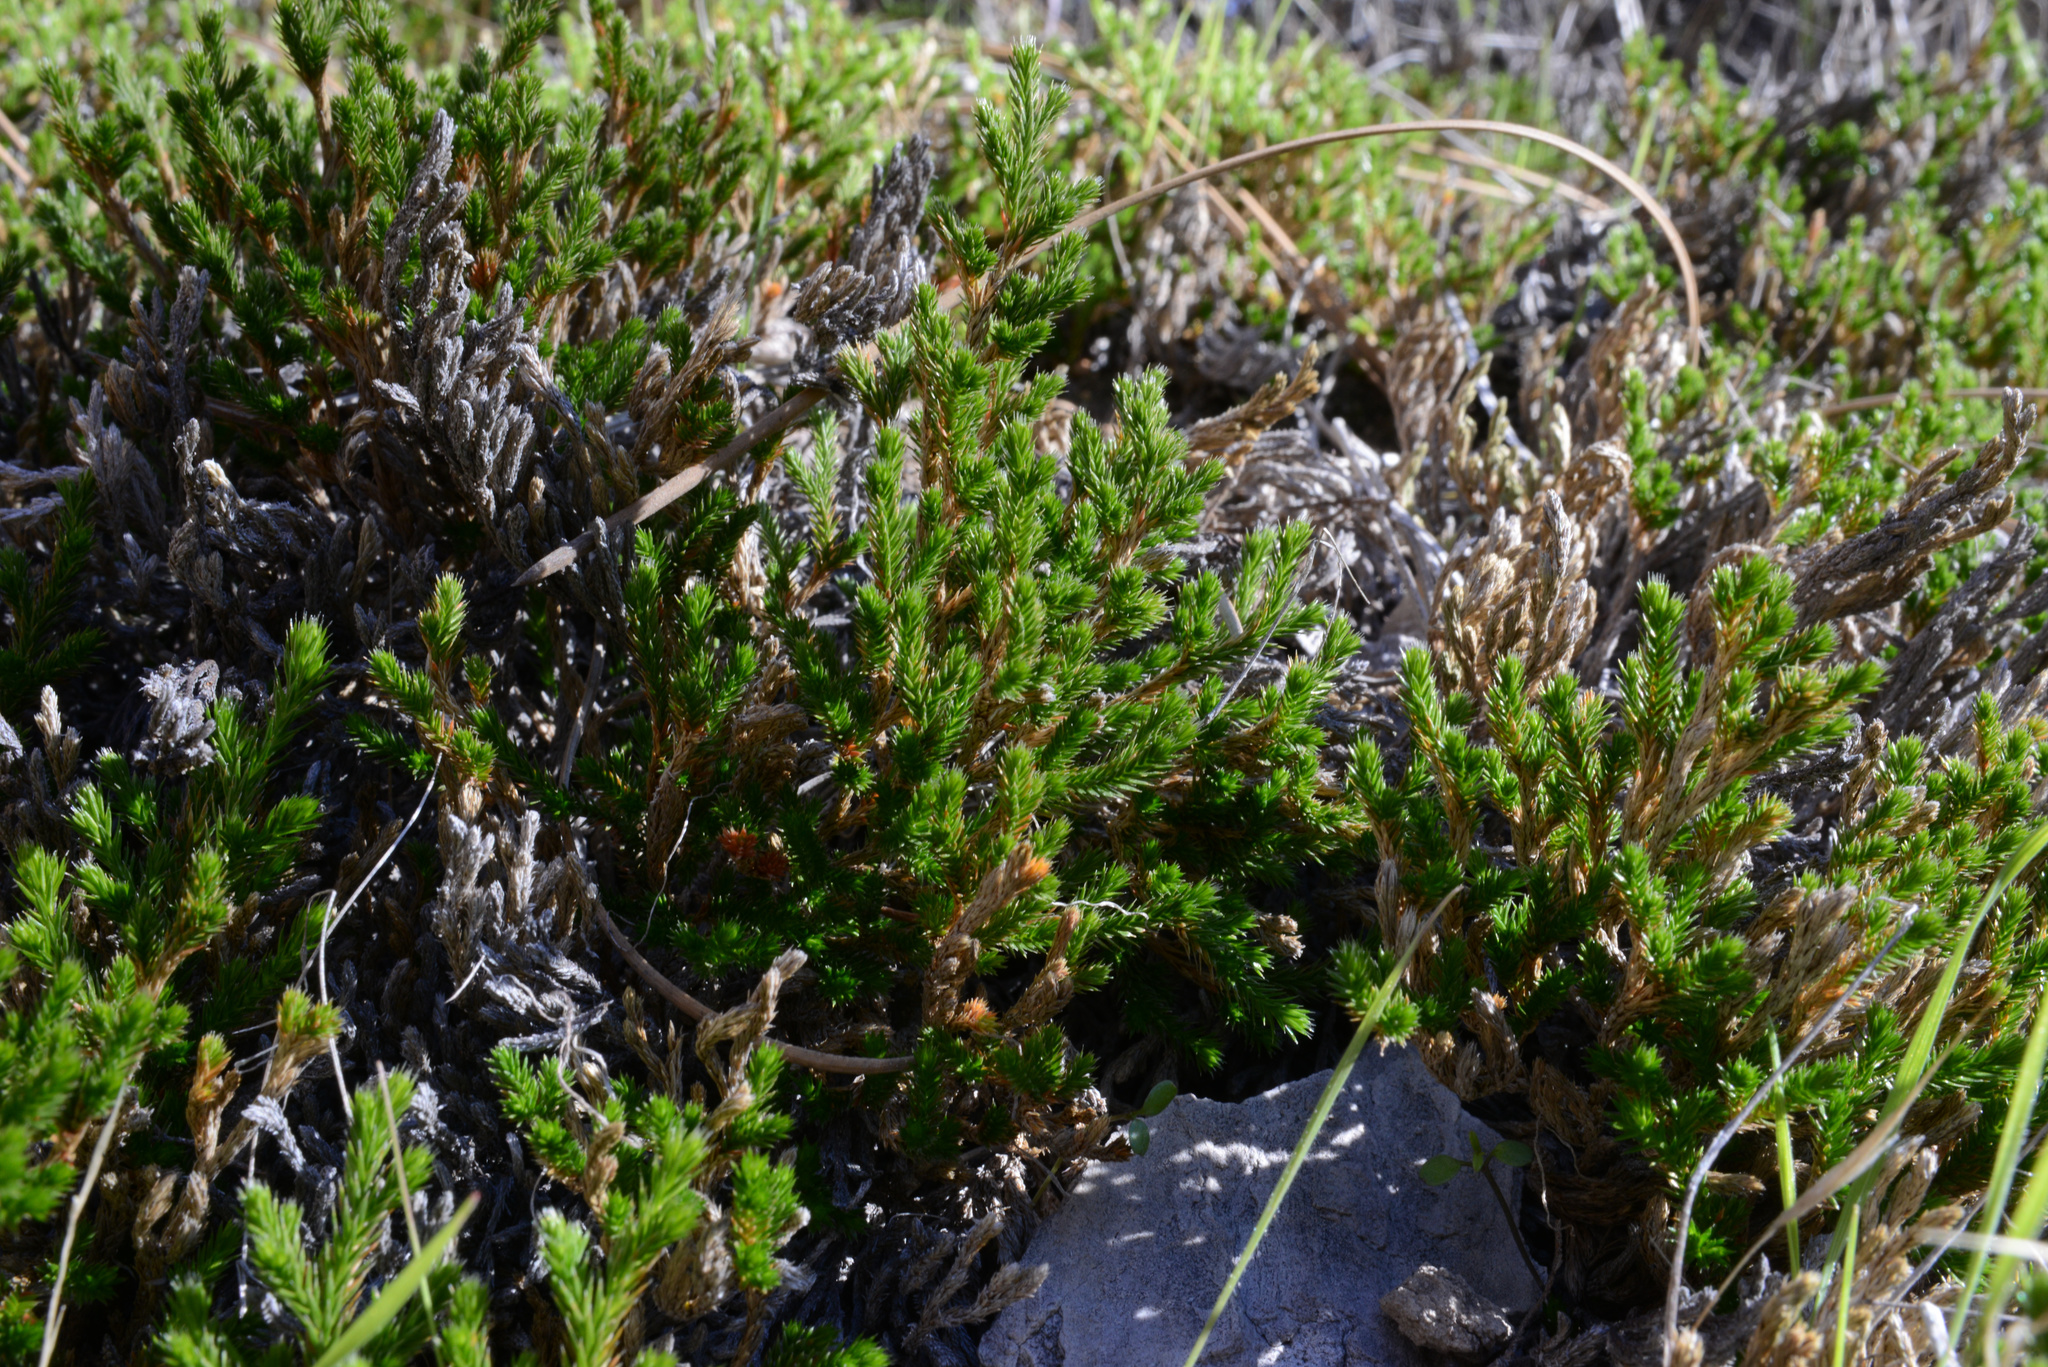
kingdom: Plantae
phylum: Tracheophyta
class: Lycopodiopsida
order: Selaginellales
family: Selaginellaceae
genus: Selaginella
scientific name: Selaginella bigelovii
